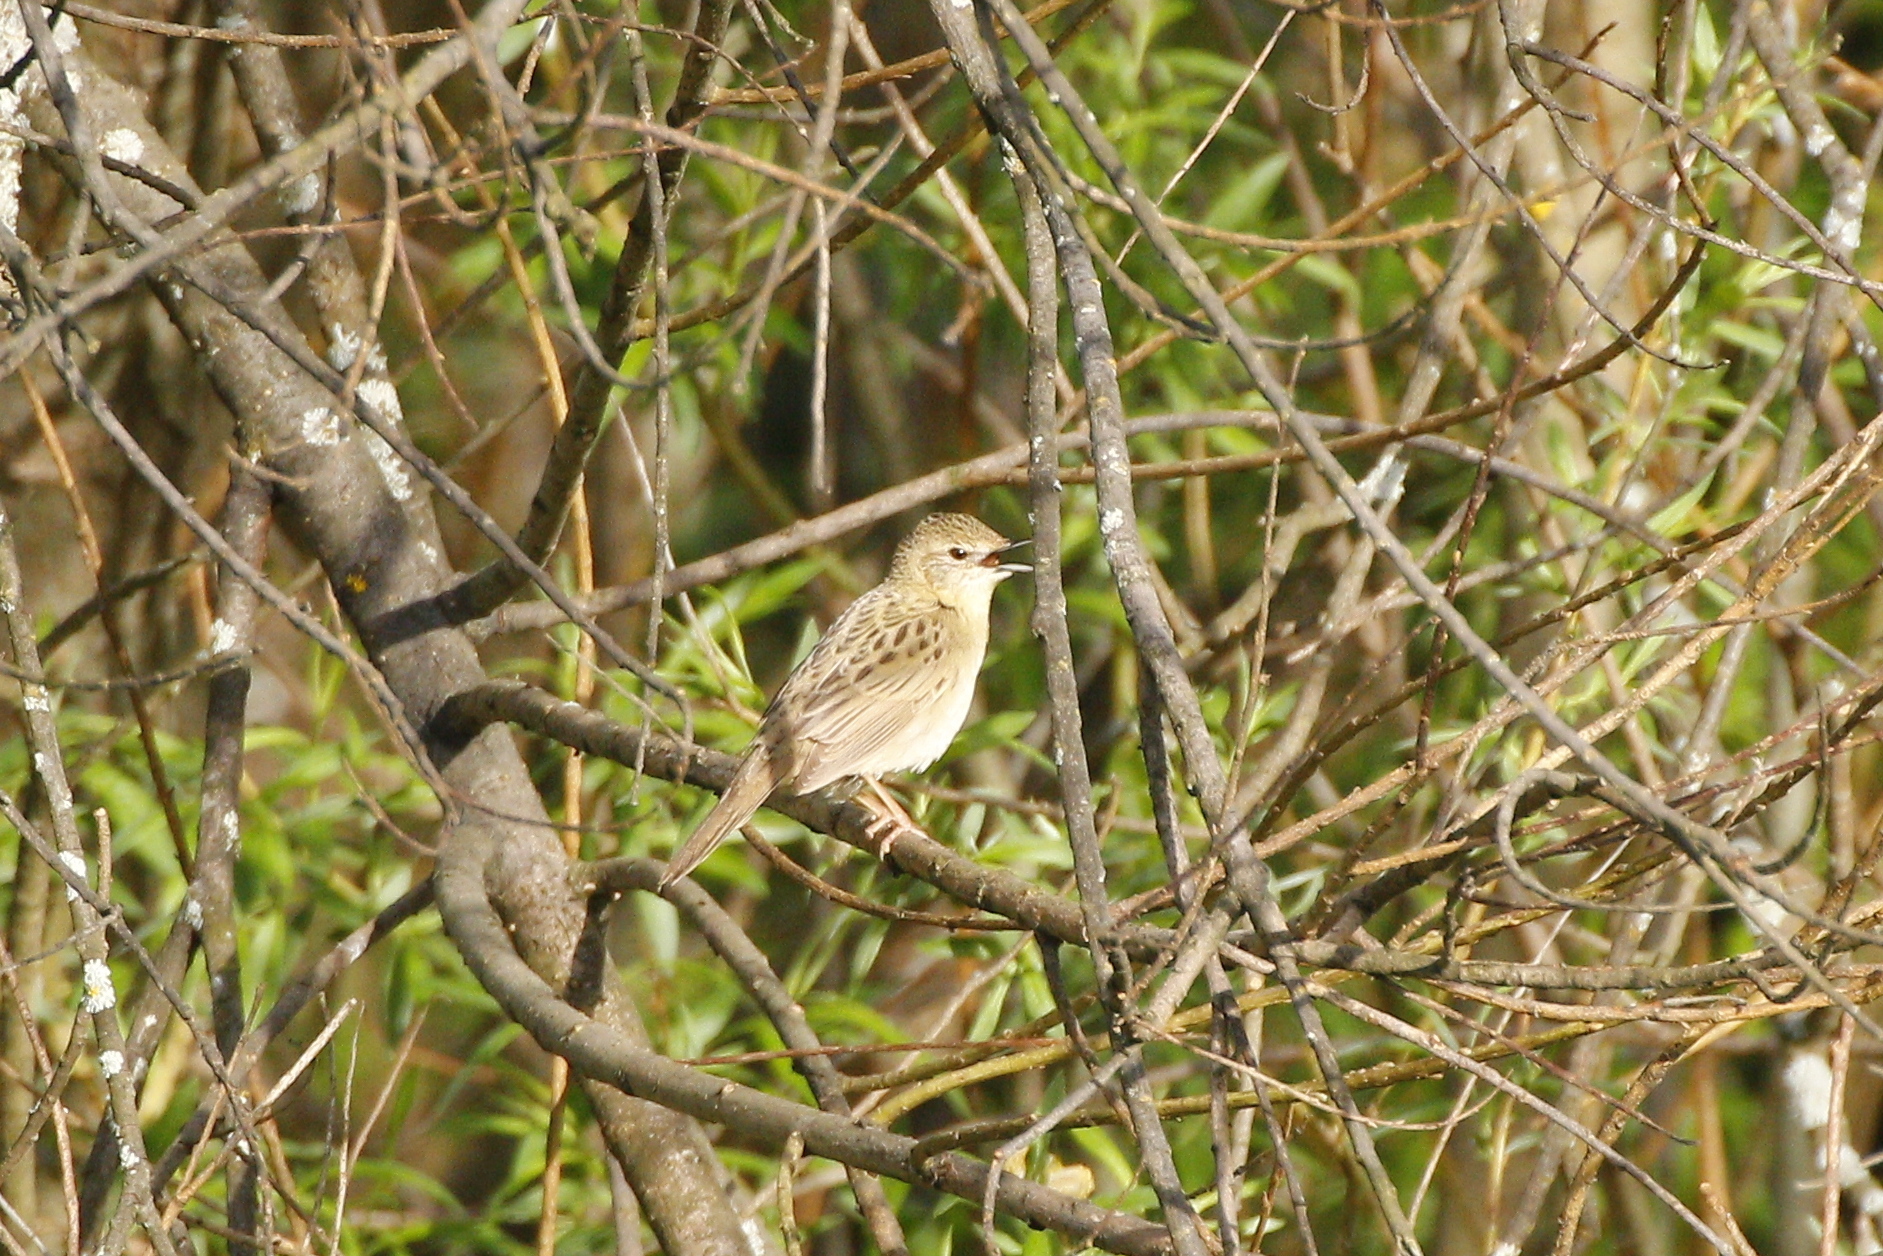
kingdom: Animalia
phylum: Chordata
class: Aves
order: Passeriformes
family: Locustellidae
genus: Locustella
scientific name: Locustella naevia
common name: Common grasshopper warbler
